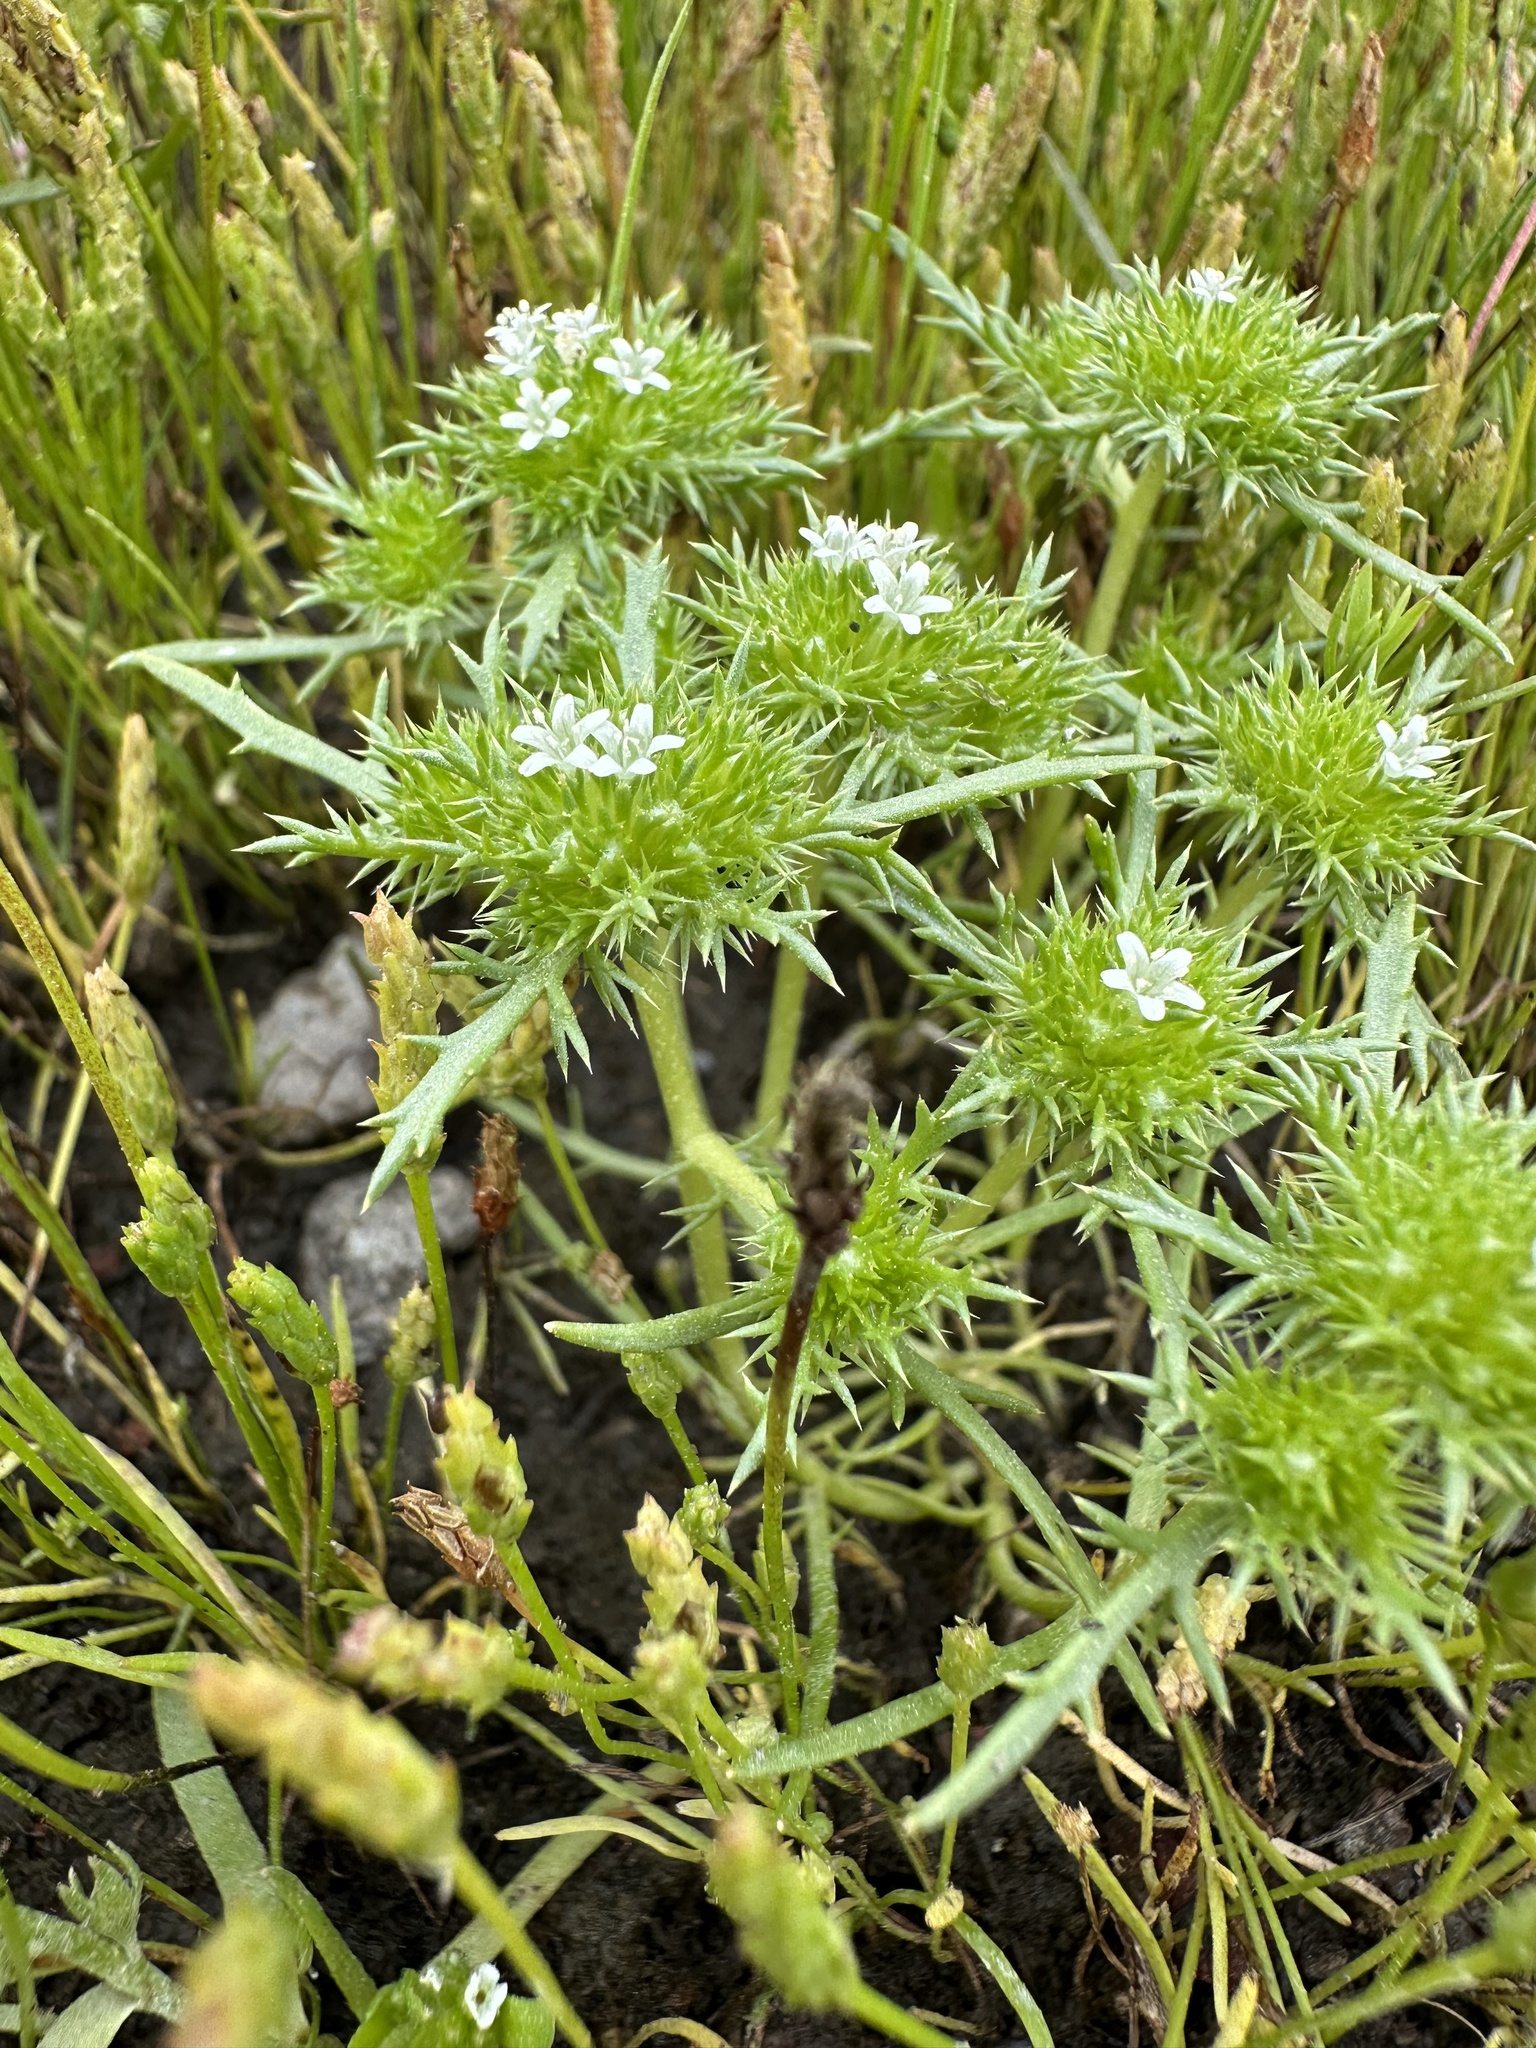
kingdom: Plantae
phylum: Tracheophyta
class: Magnoliopsida
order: Ericales
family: Polemoniaceae
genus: Navarretia
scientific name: Navarretia leucocephala
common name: White-flowered navarretia
